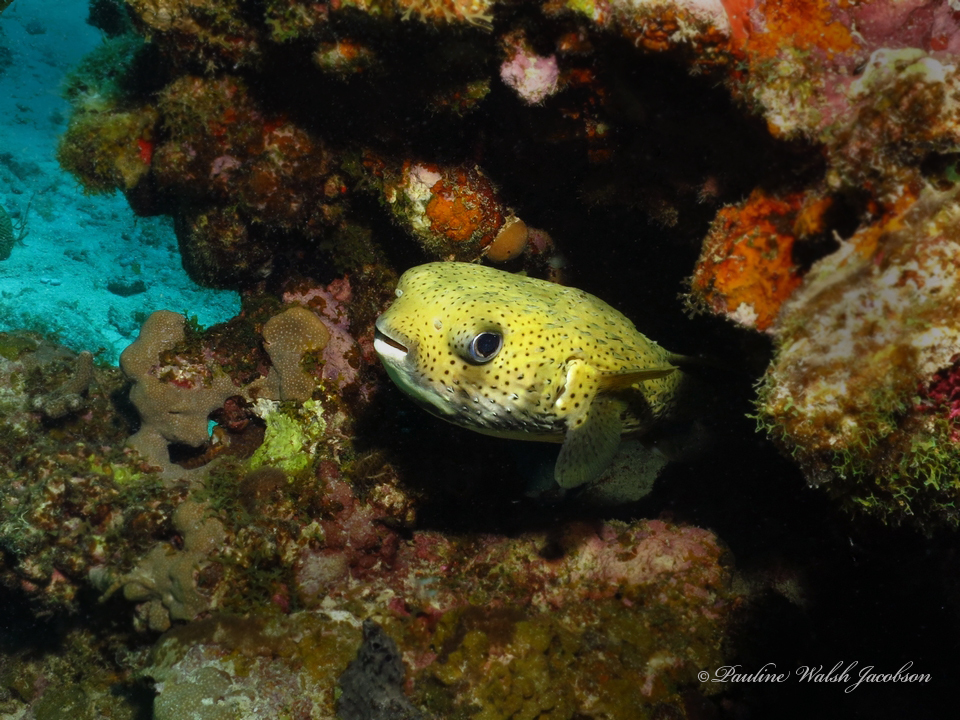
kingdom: Animalia
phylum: Chordata
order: Tetraodontiformes
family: Diodontidae
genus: Diodon
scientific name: Diodon hystrix
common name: Giant porcupinefish
